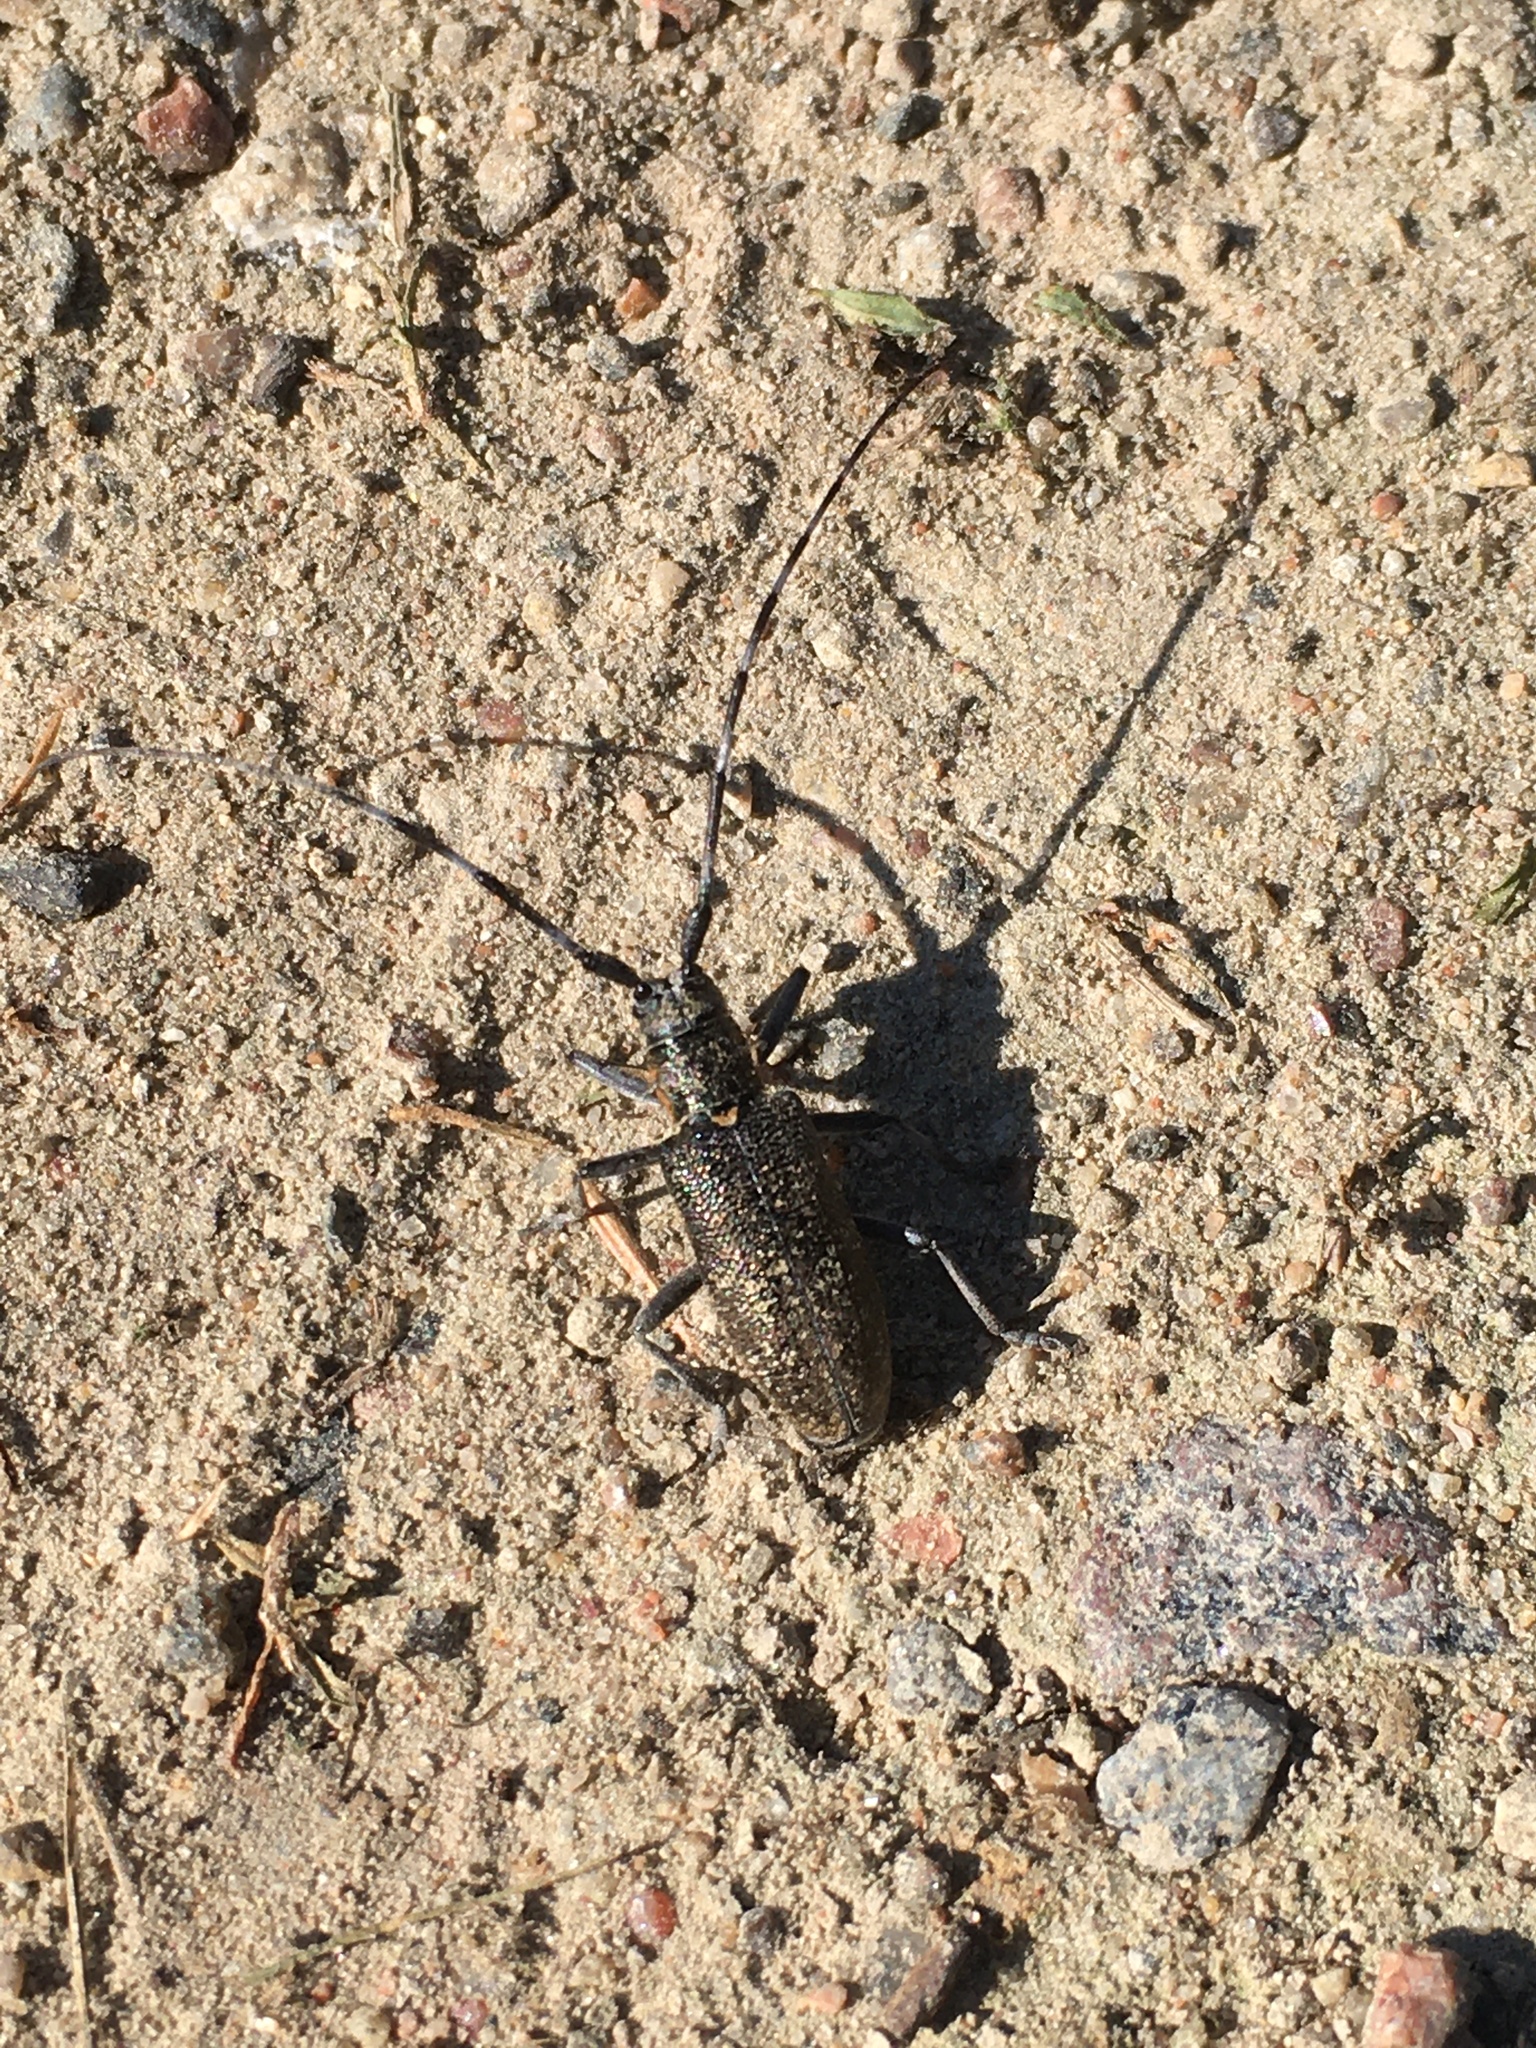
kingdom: Animalia
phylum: Arthropoda
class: Insecta
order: Coleoptera
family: Cerambycidae
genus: Monochamus
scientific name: Monochamus galloprovincialis
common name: Pine sawyer
